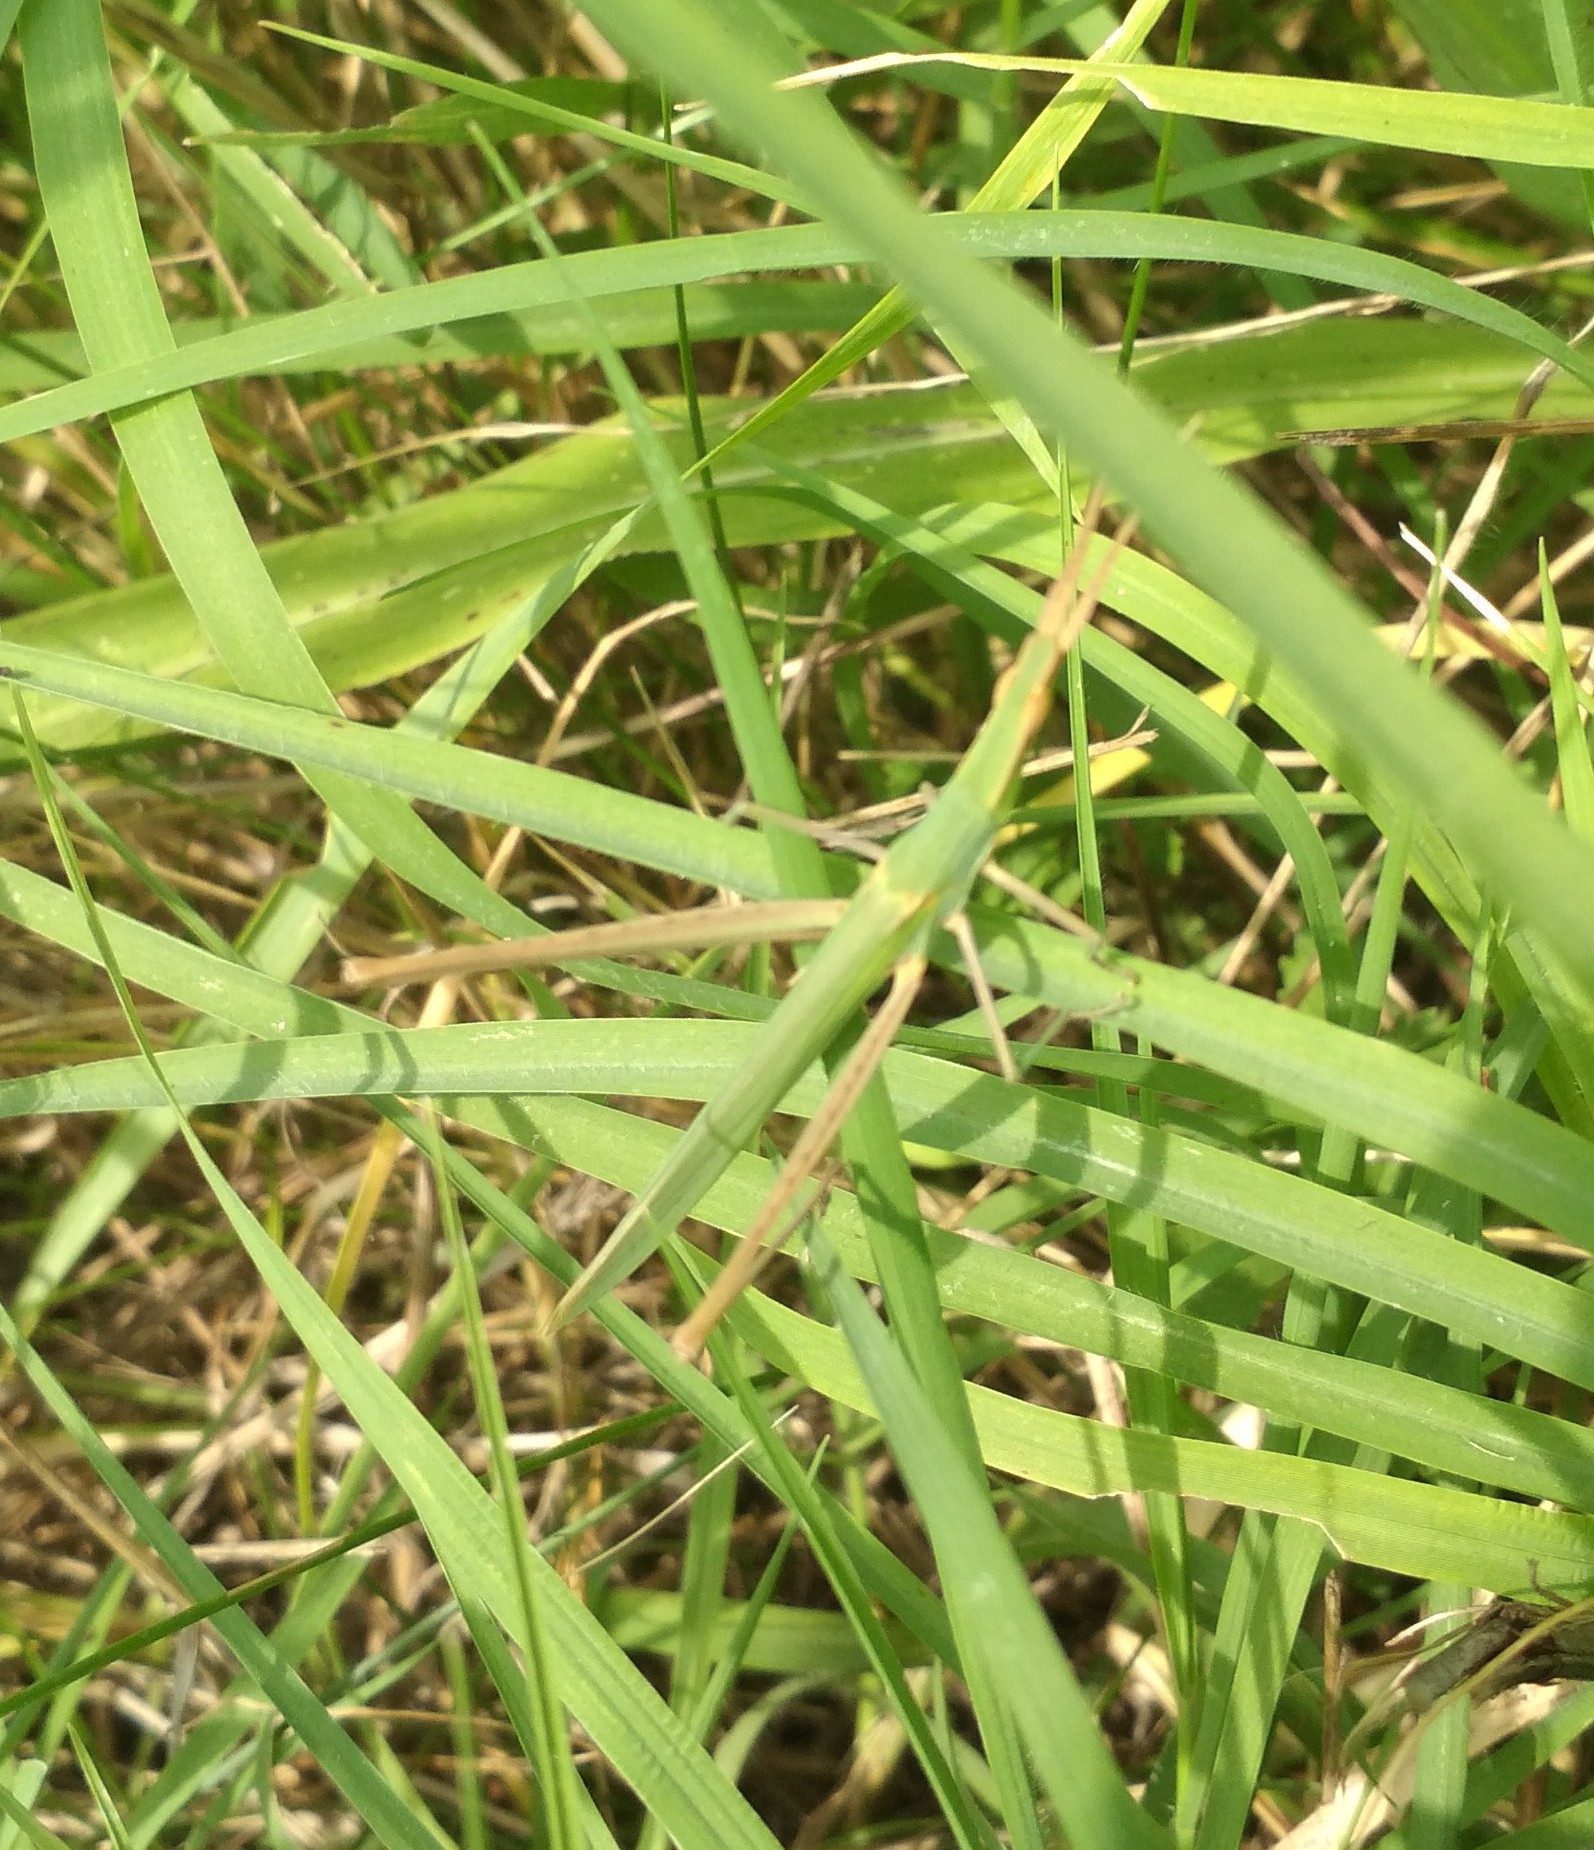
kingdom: Animalia
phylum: Arthropoda
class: Insecta
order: Orthoptera
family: Acrididae
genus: Acrida
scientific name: Acrida ungarica
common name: Common cone-headed grasshopper
